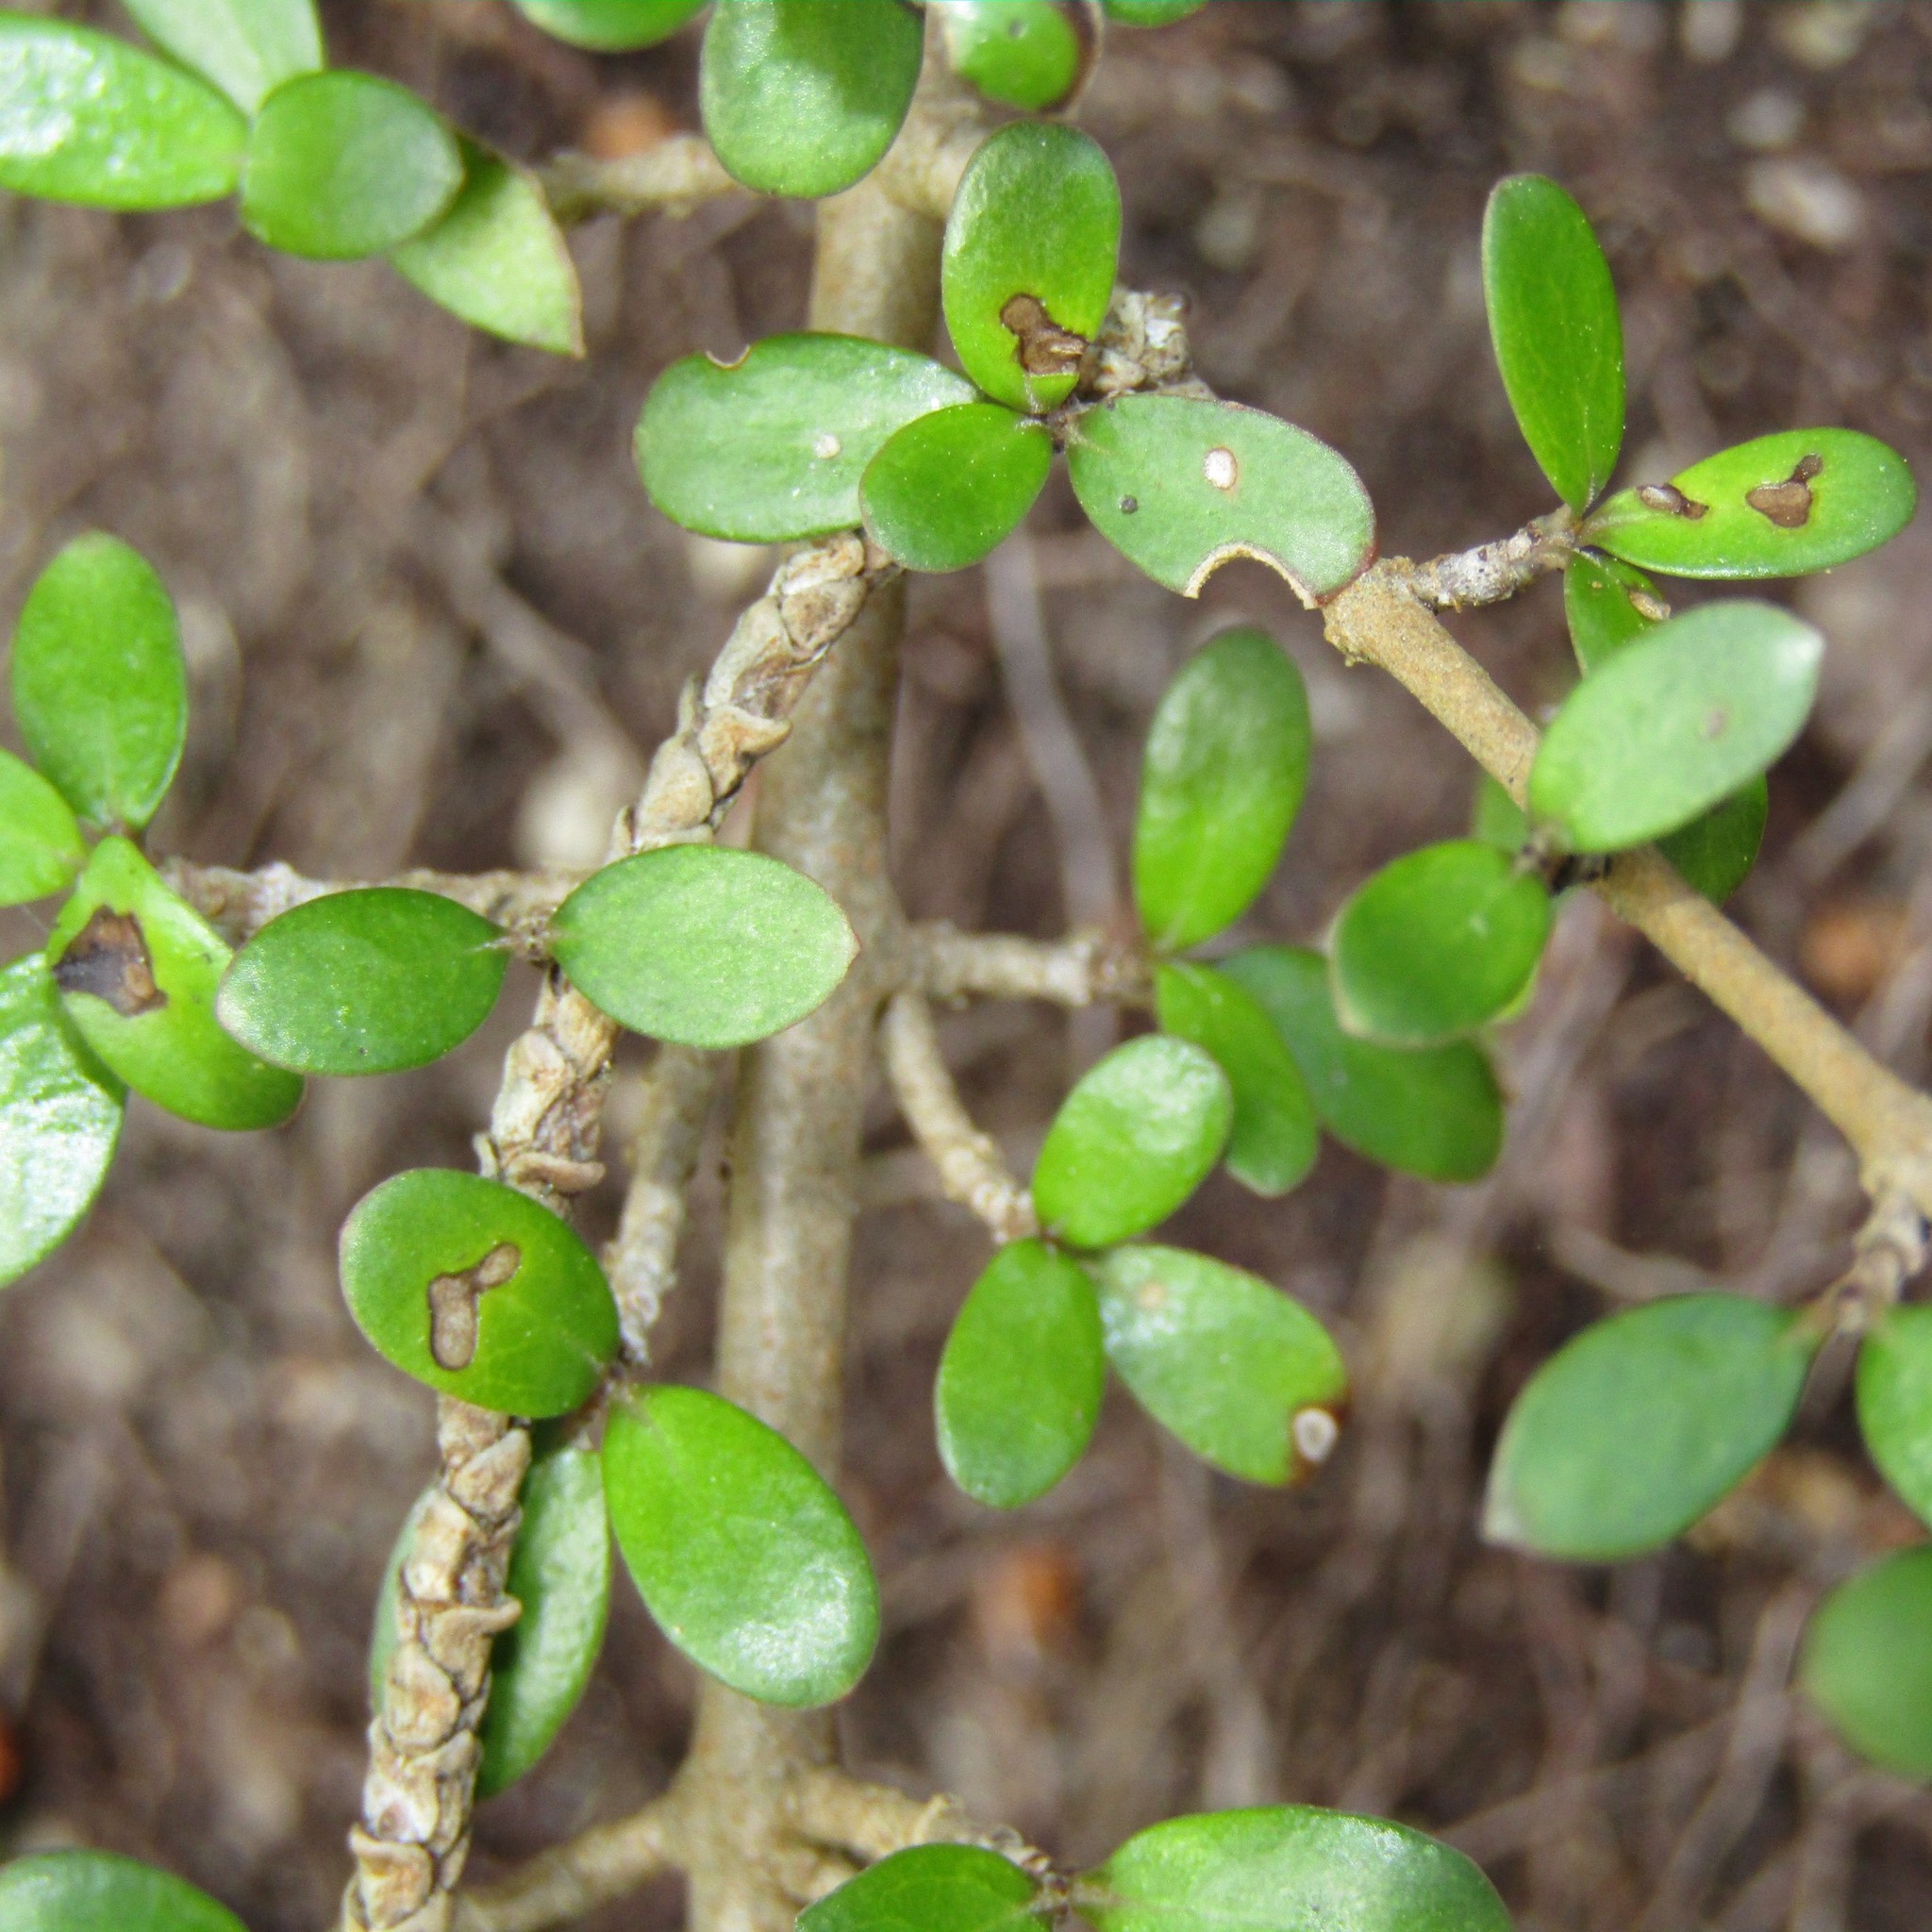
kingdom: Plantae
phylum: Tracheophyta
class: Magnoliopsida
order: Gentianales
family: Rubiaceae
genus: Coprosma
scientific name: Coprosma propinqua
